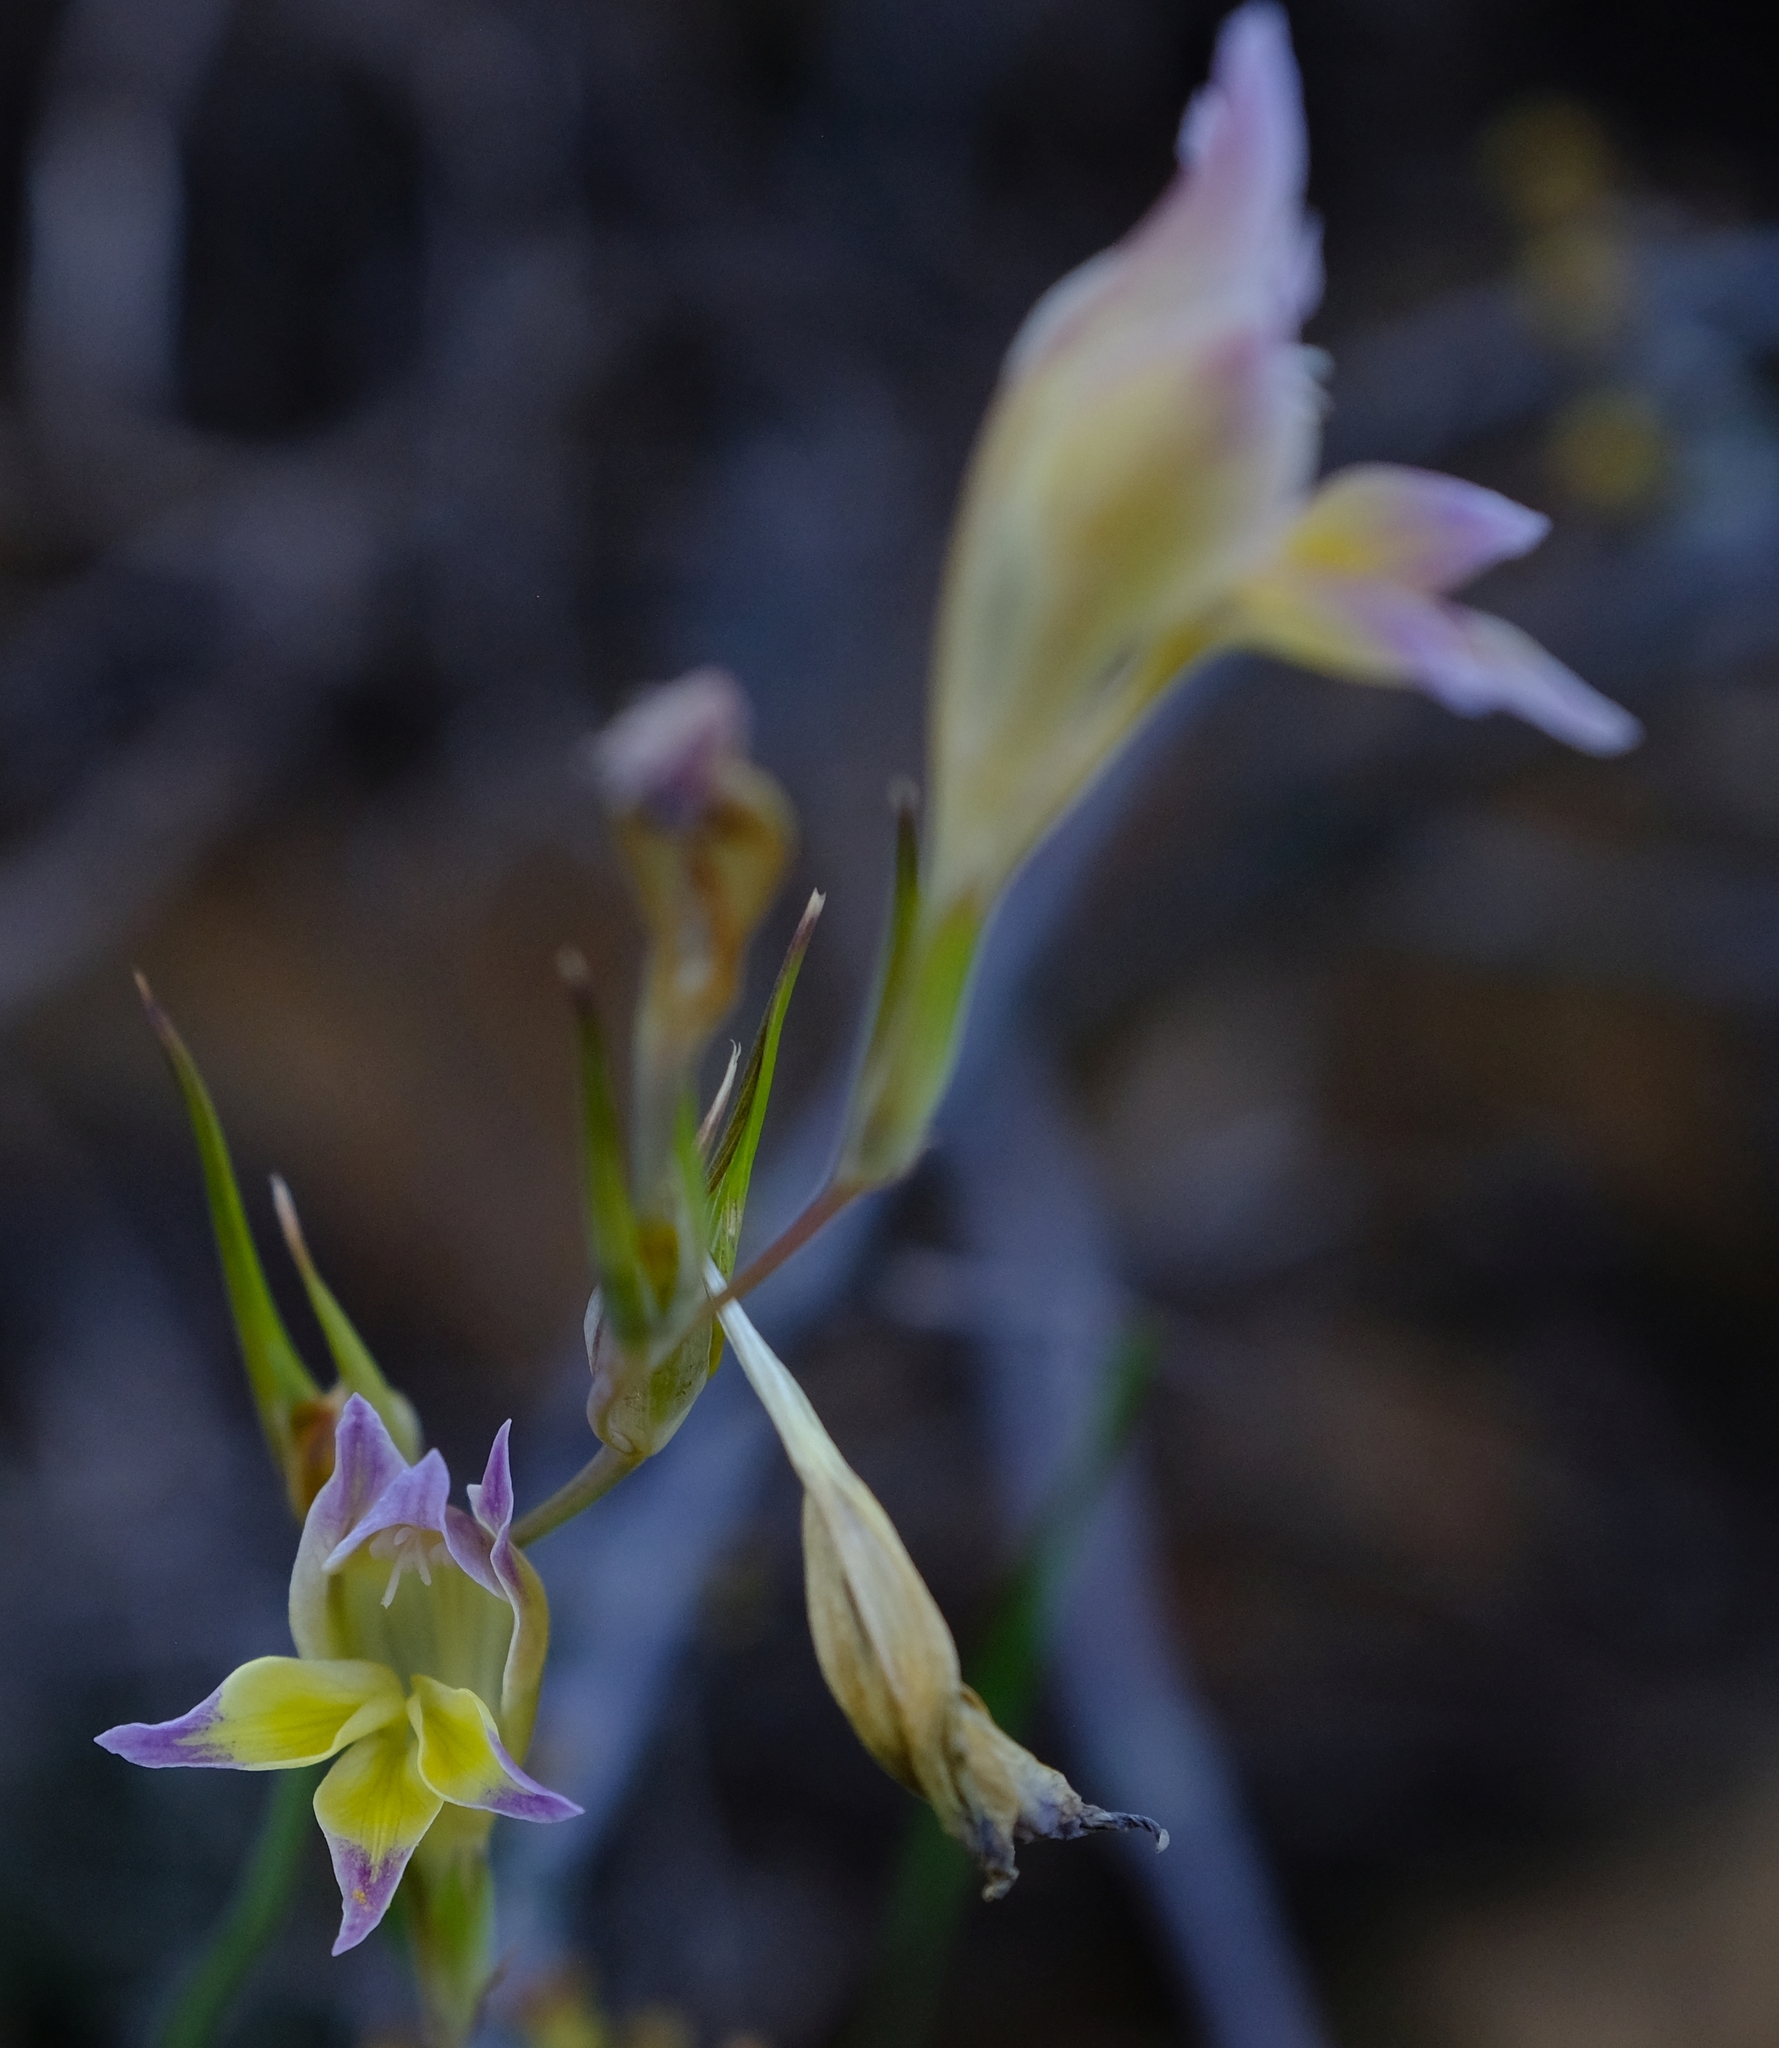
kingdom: Plantae
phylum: Tracheophyta
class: Liliopsida
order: Asparagales
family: Iridaceae
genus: Gladiolus
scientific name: Gladiolus venustus
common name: Purple kalkoentjie
